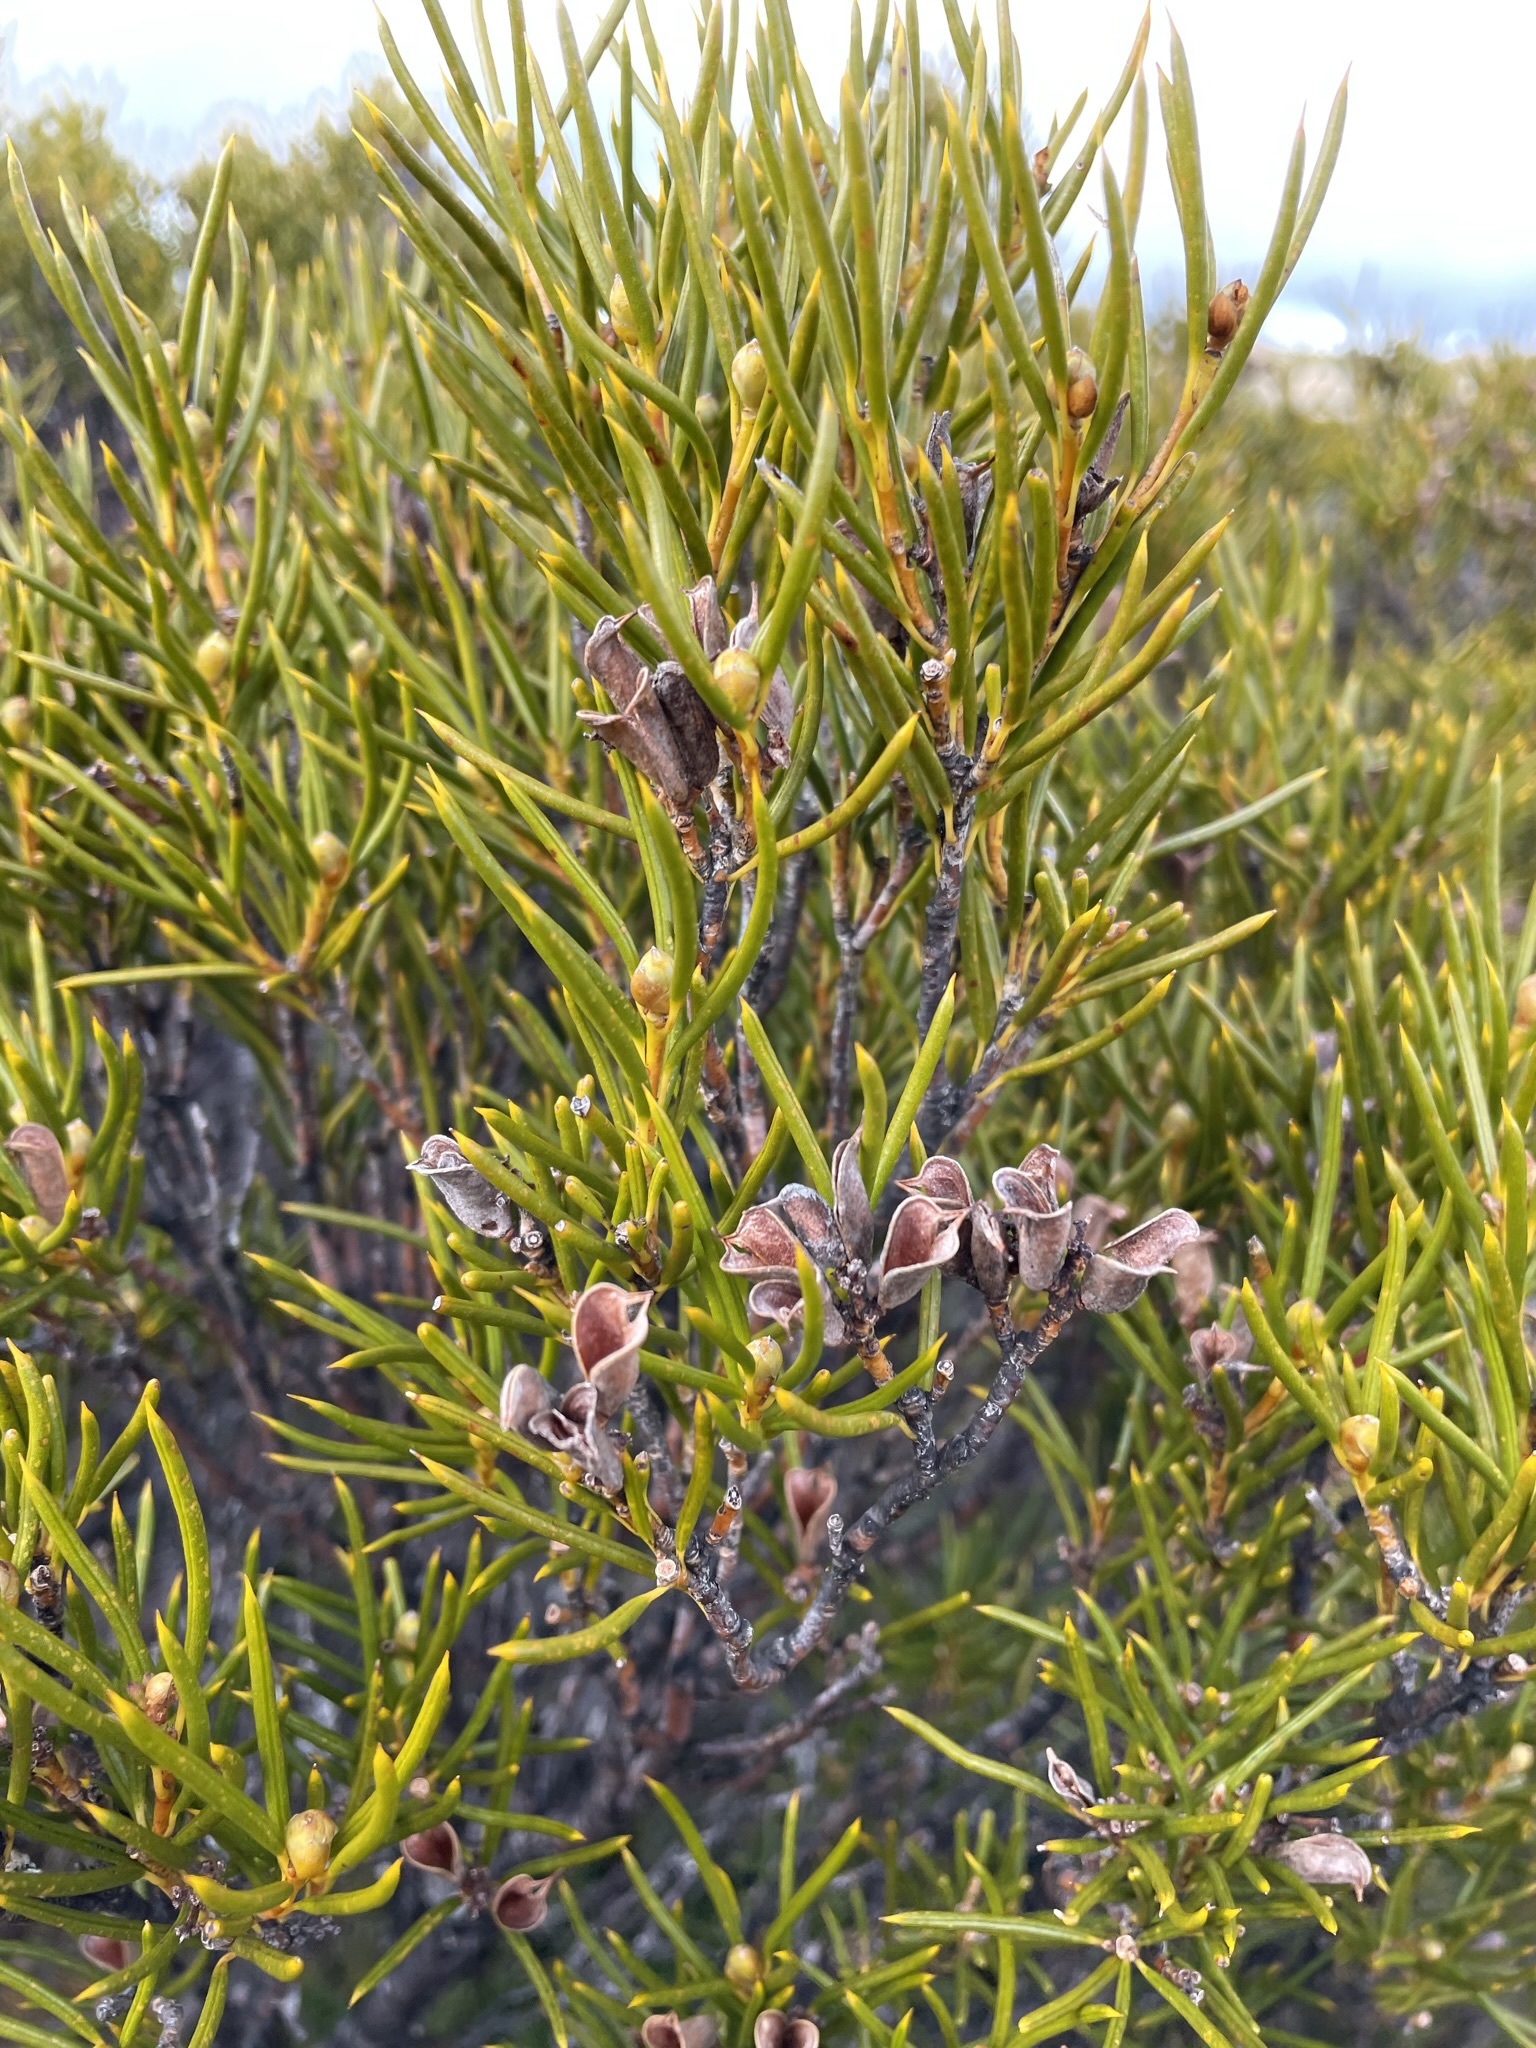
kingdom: Plantae
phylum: Tracheophyta
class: Magnoliopsida
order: Proteales
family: Proteaceae
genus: Orites
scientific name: Orites acicularis
